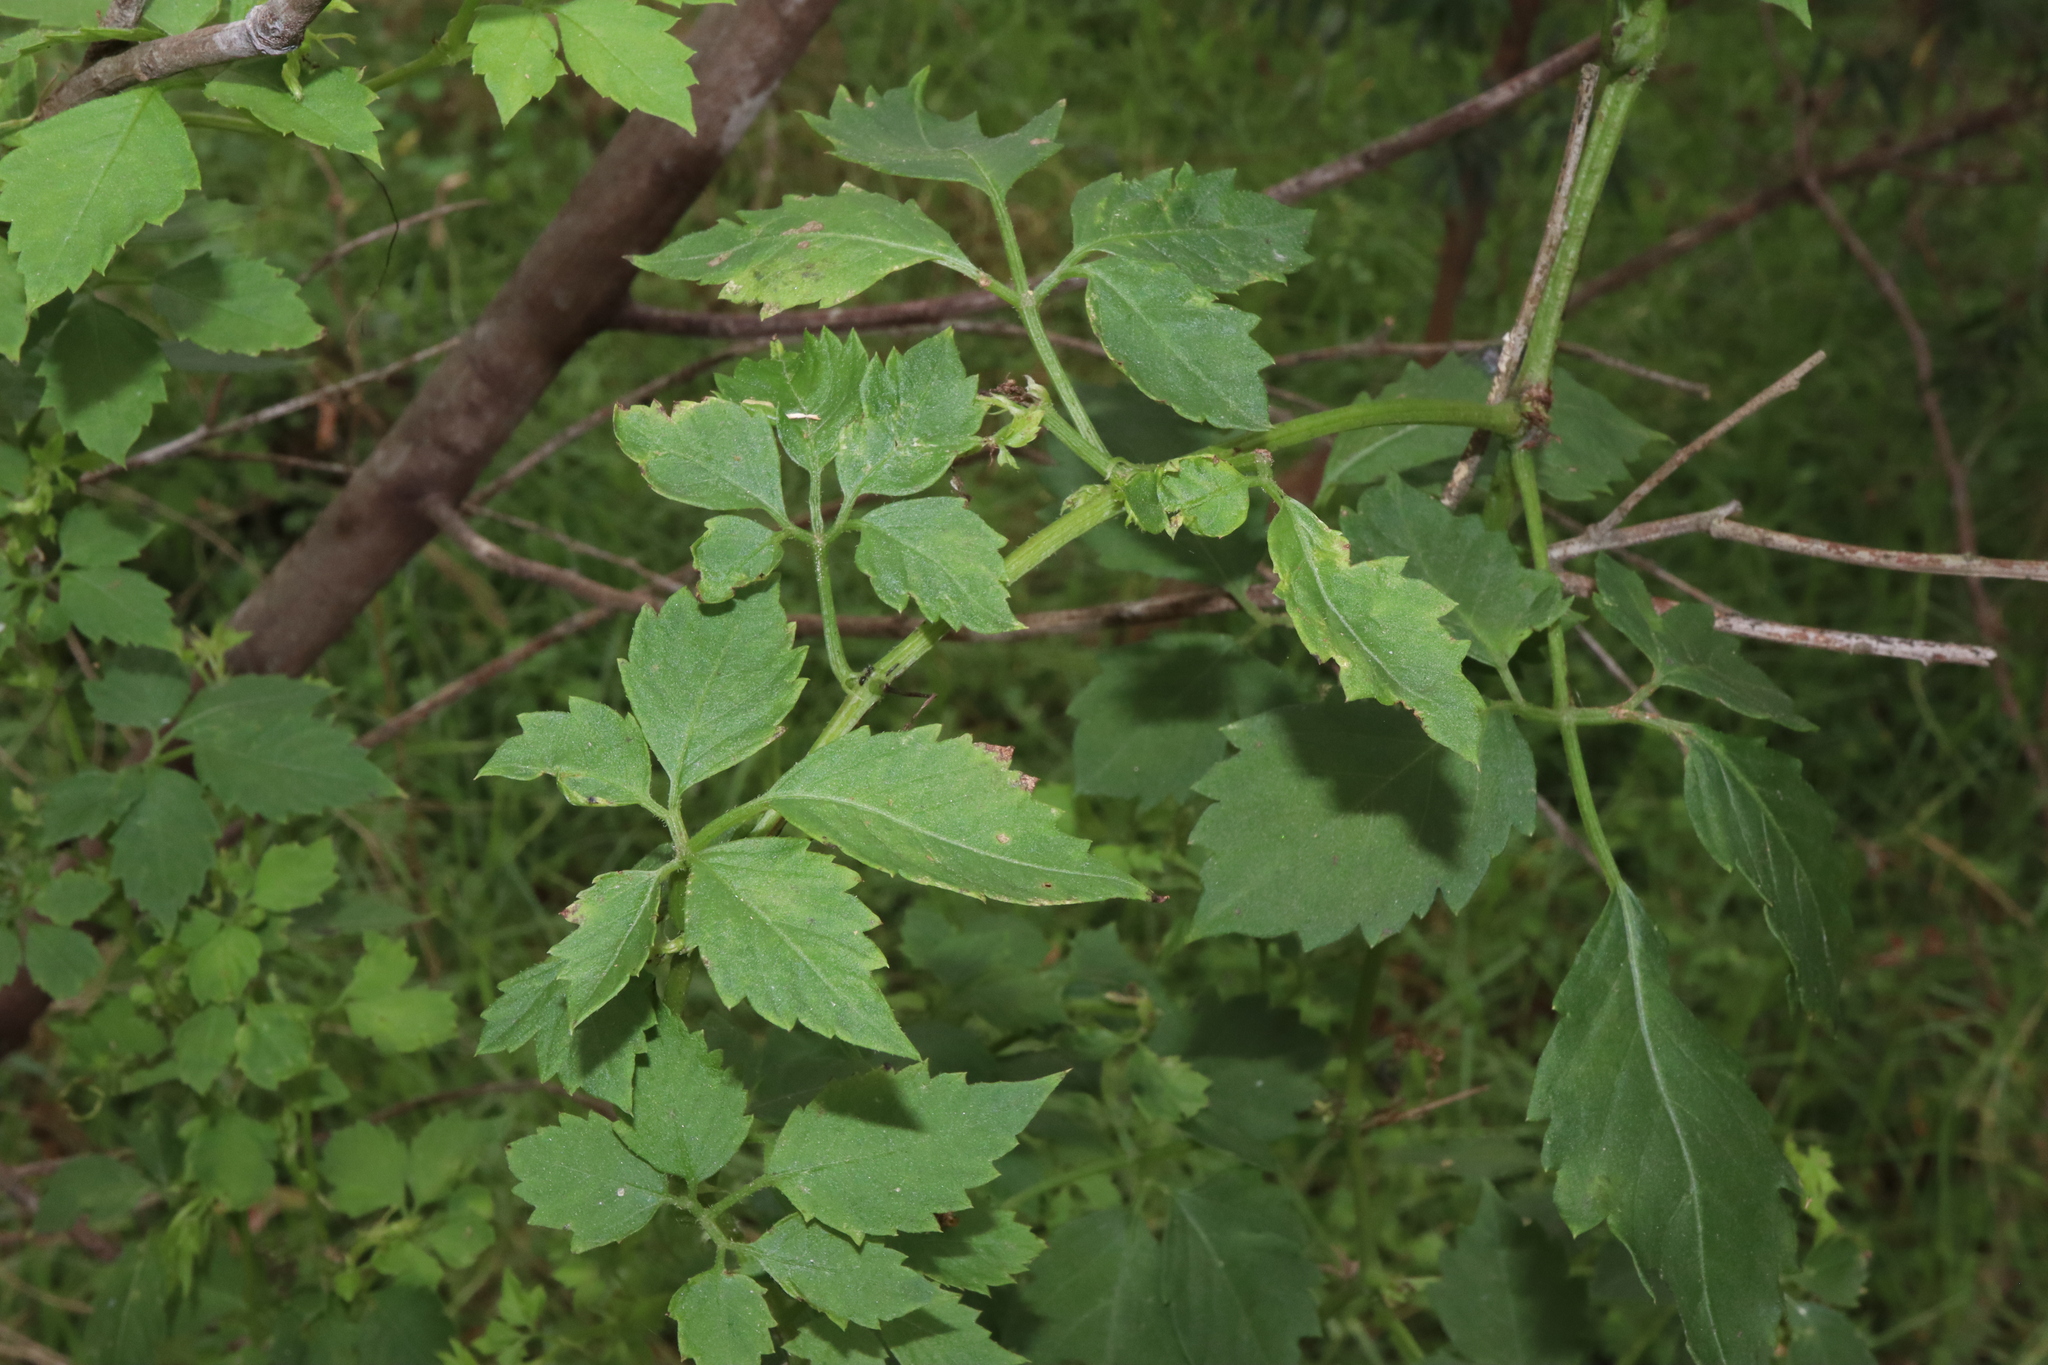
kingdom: Plantae
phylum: Tracheophyta
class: Magnoliopsida
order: Vitales
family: Vitaceae
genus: Causonis
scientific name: Causonis clematidea
